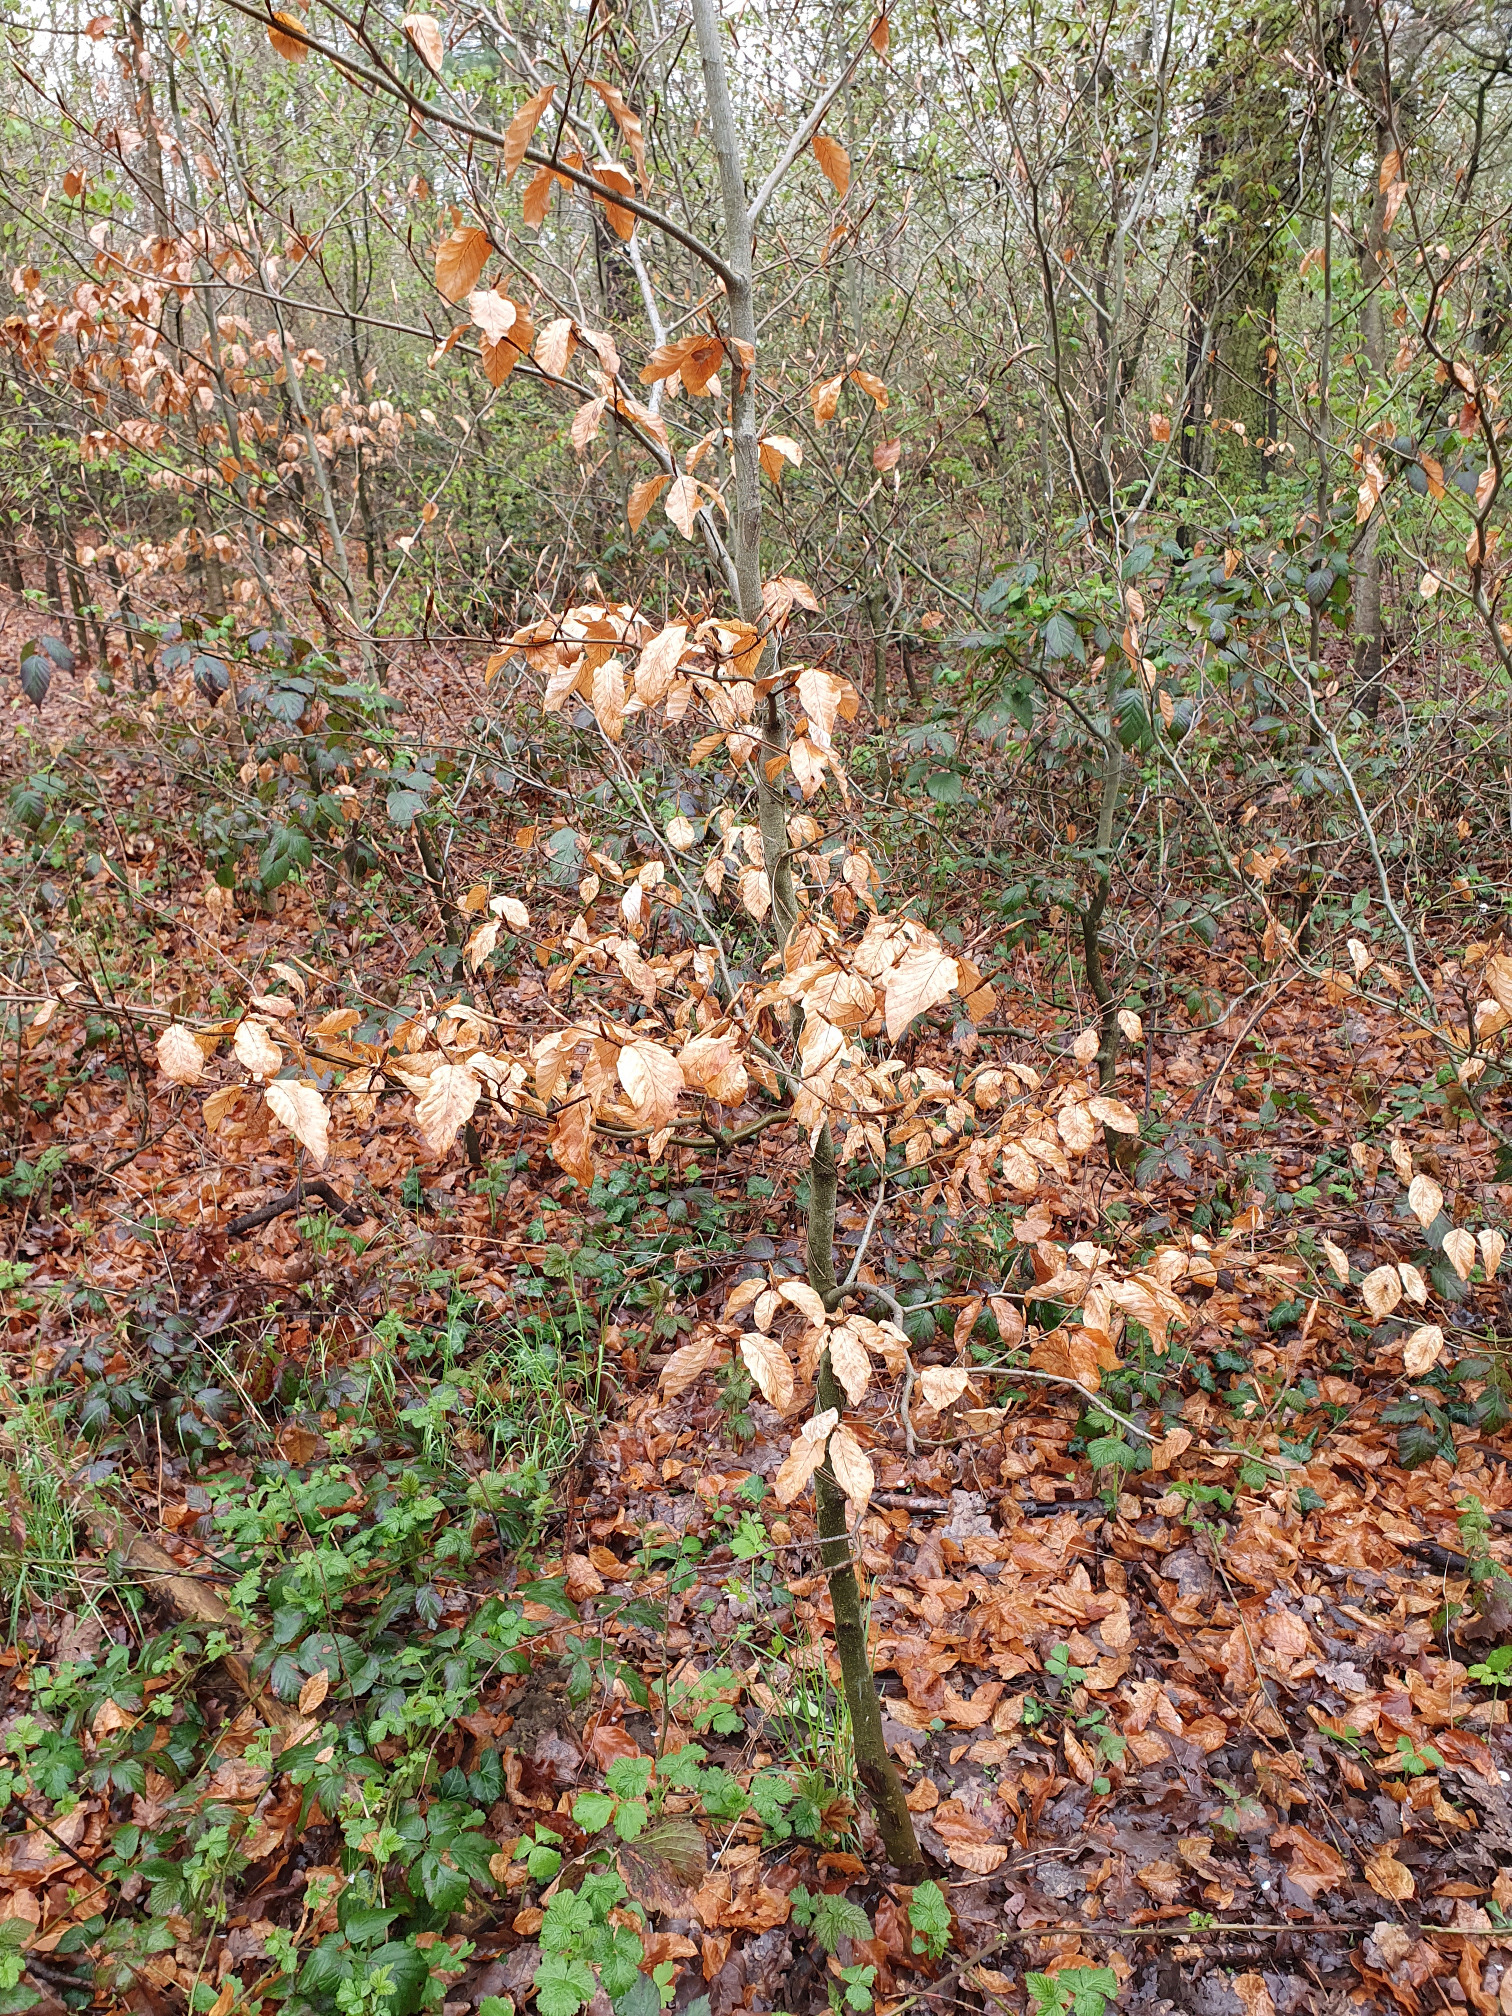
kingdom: Plantae
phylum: Tracheophyta
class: Magnoliopsida
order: Fagales
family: Fagaceae
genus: Fagus
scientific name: Fagus sylvatica
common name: Beech
